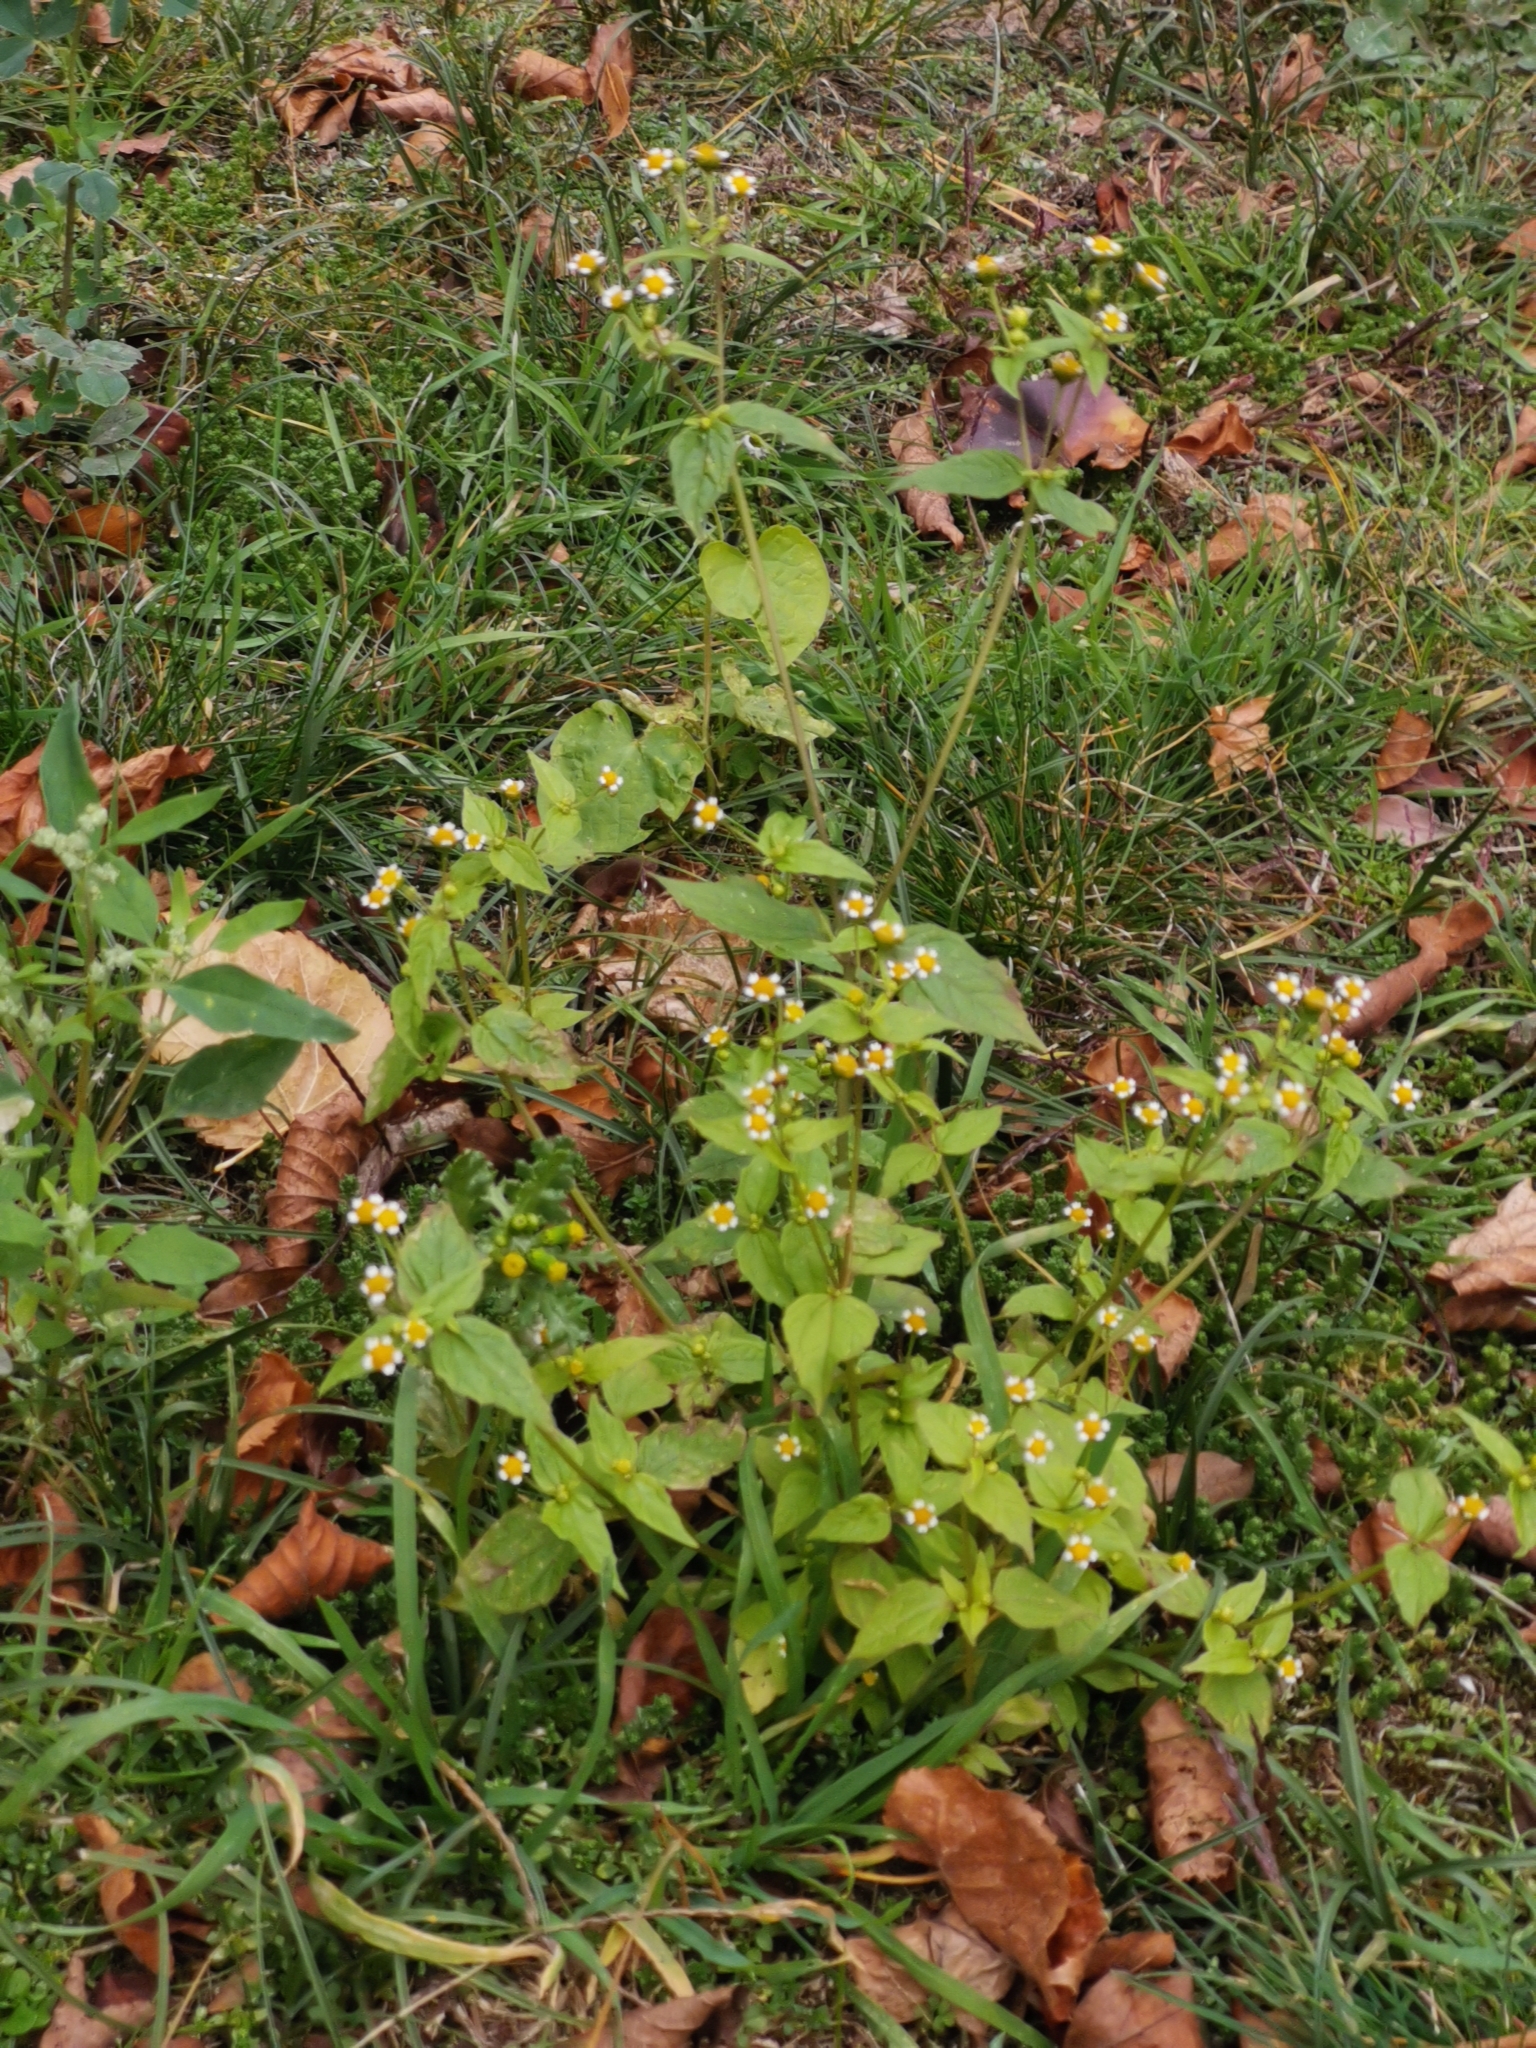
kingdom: Plantae
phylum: Tracheophyta
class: Magnoliopsida
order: Asterales
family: Asteraceae
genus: Galinsoga
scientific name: Galinsoga quadriradiata
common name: Shaggy soldier
